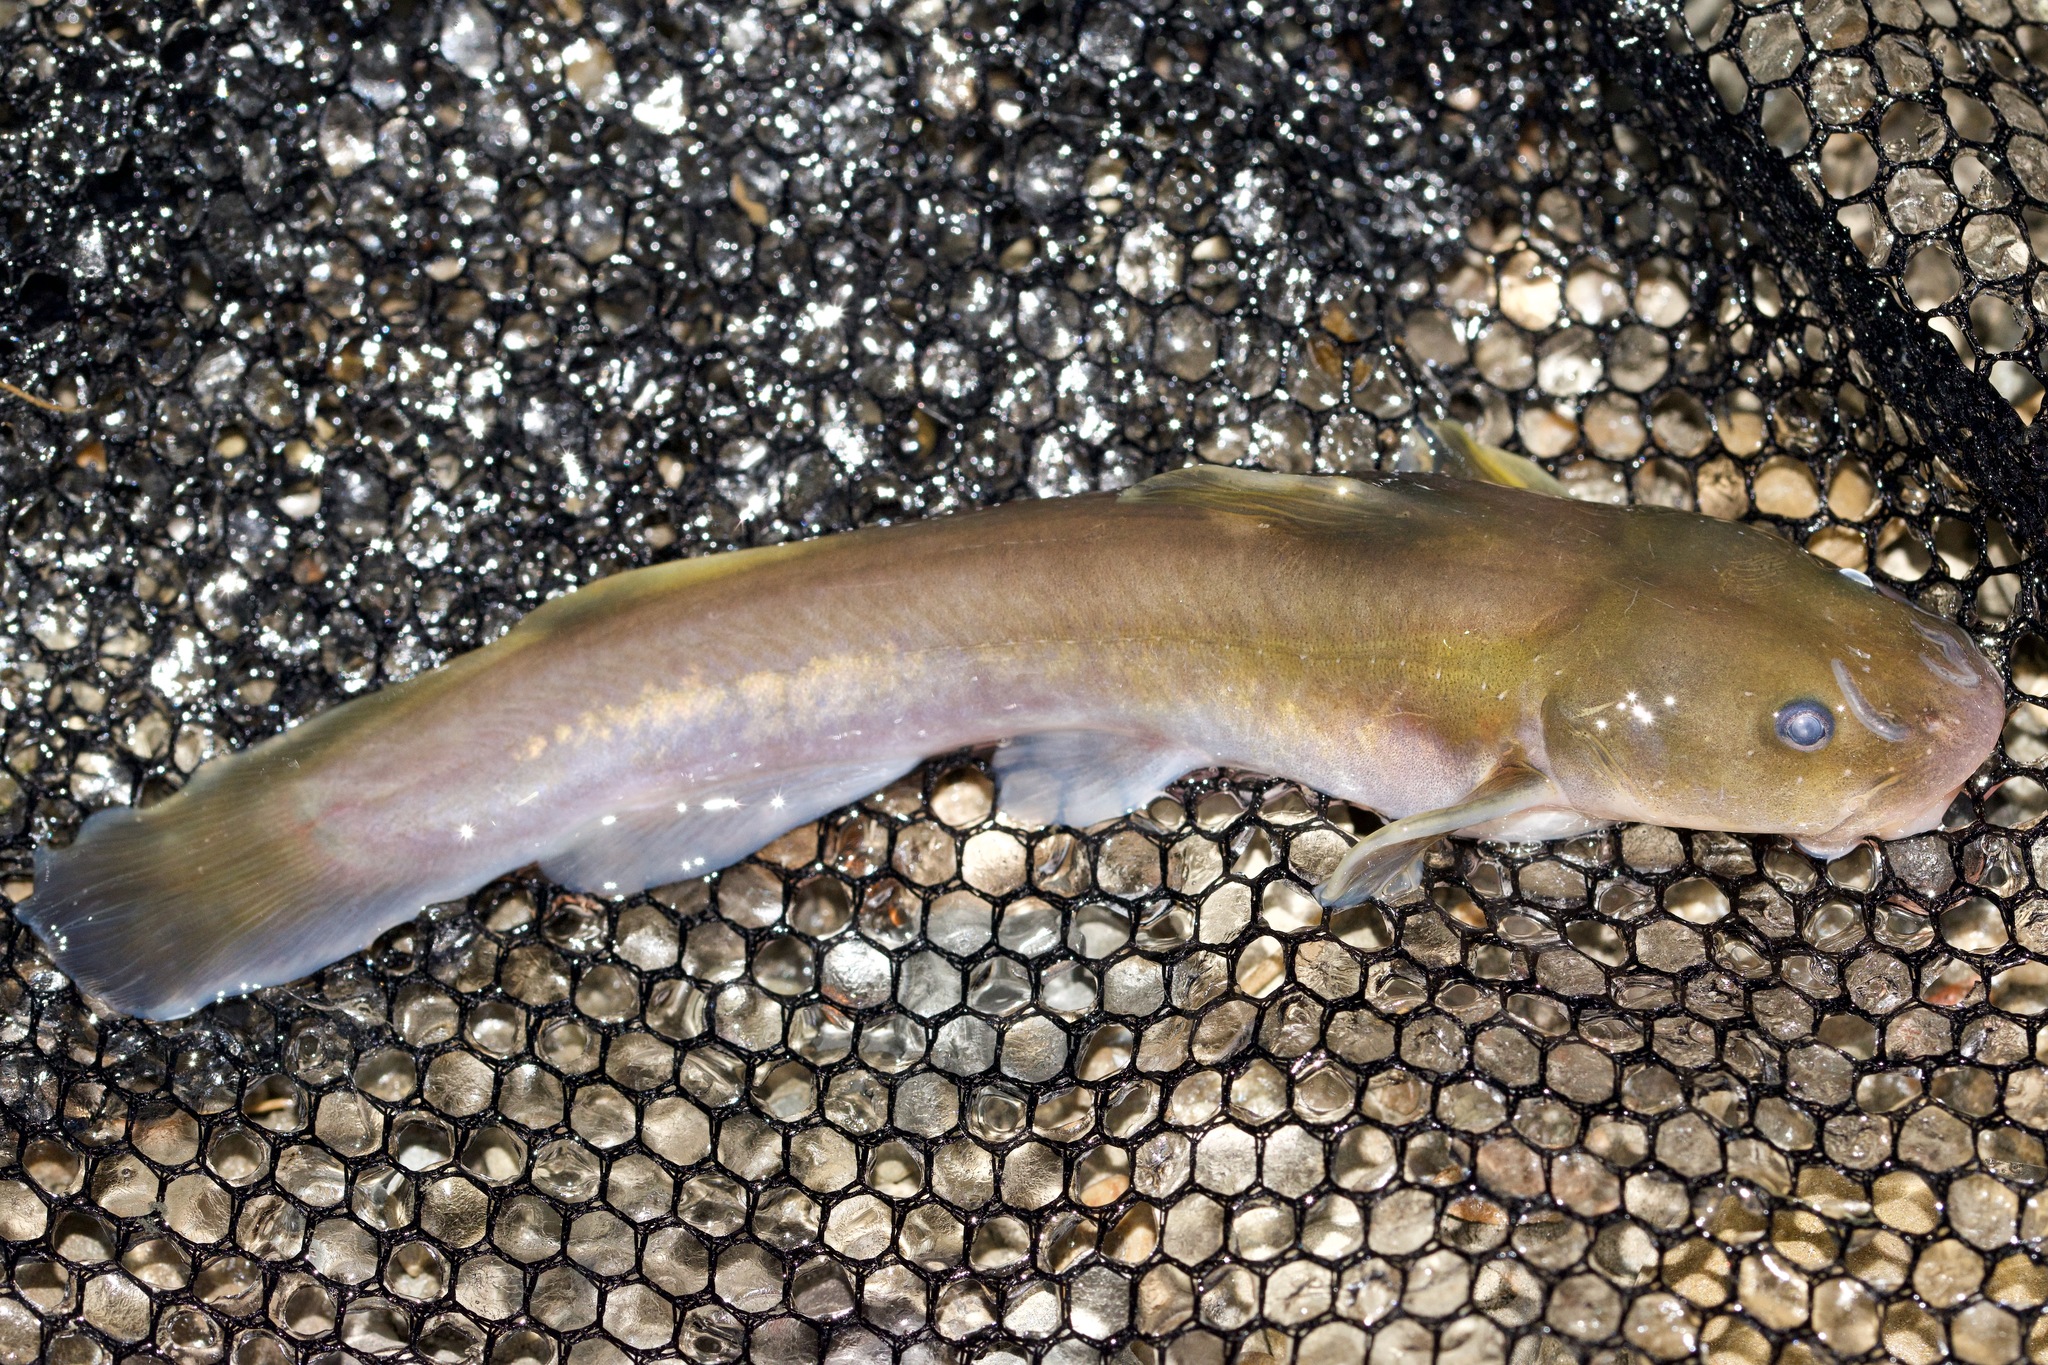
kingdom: Animalia
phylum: Chordata
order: Siluriformes
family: Ictaluridae
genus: Noturus
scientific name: Noturus flavus
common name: Stonecat
